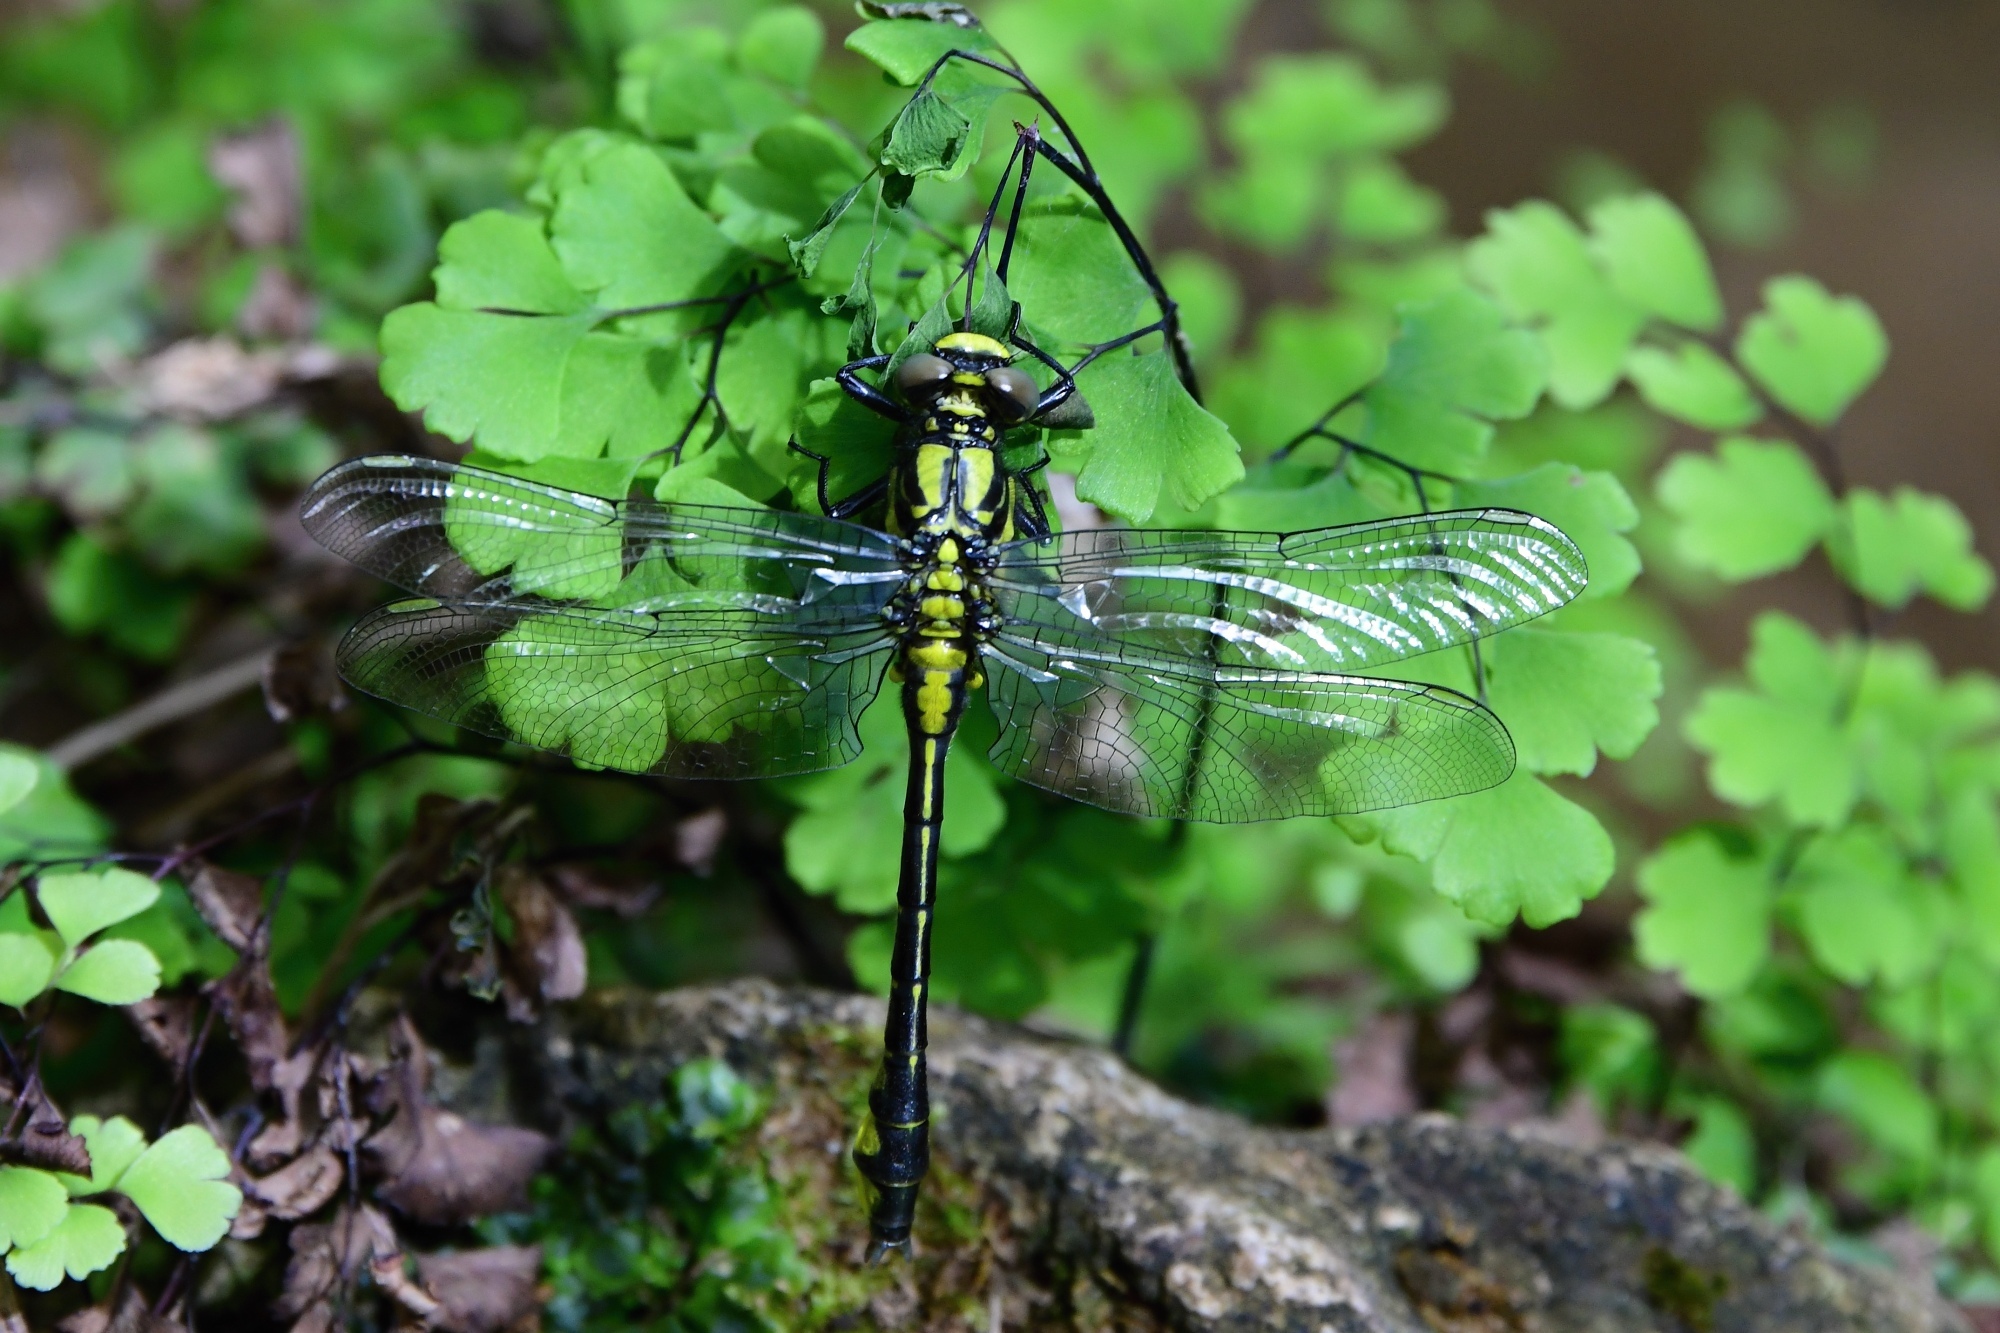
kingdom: Animalia
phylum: Arthropoda
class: Insecta
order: Odonata
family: Gomphidae
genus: Gomphus
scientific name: Gomphus vulgatissimus
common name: Club-tailed dragonfly
